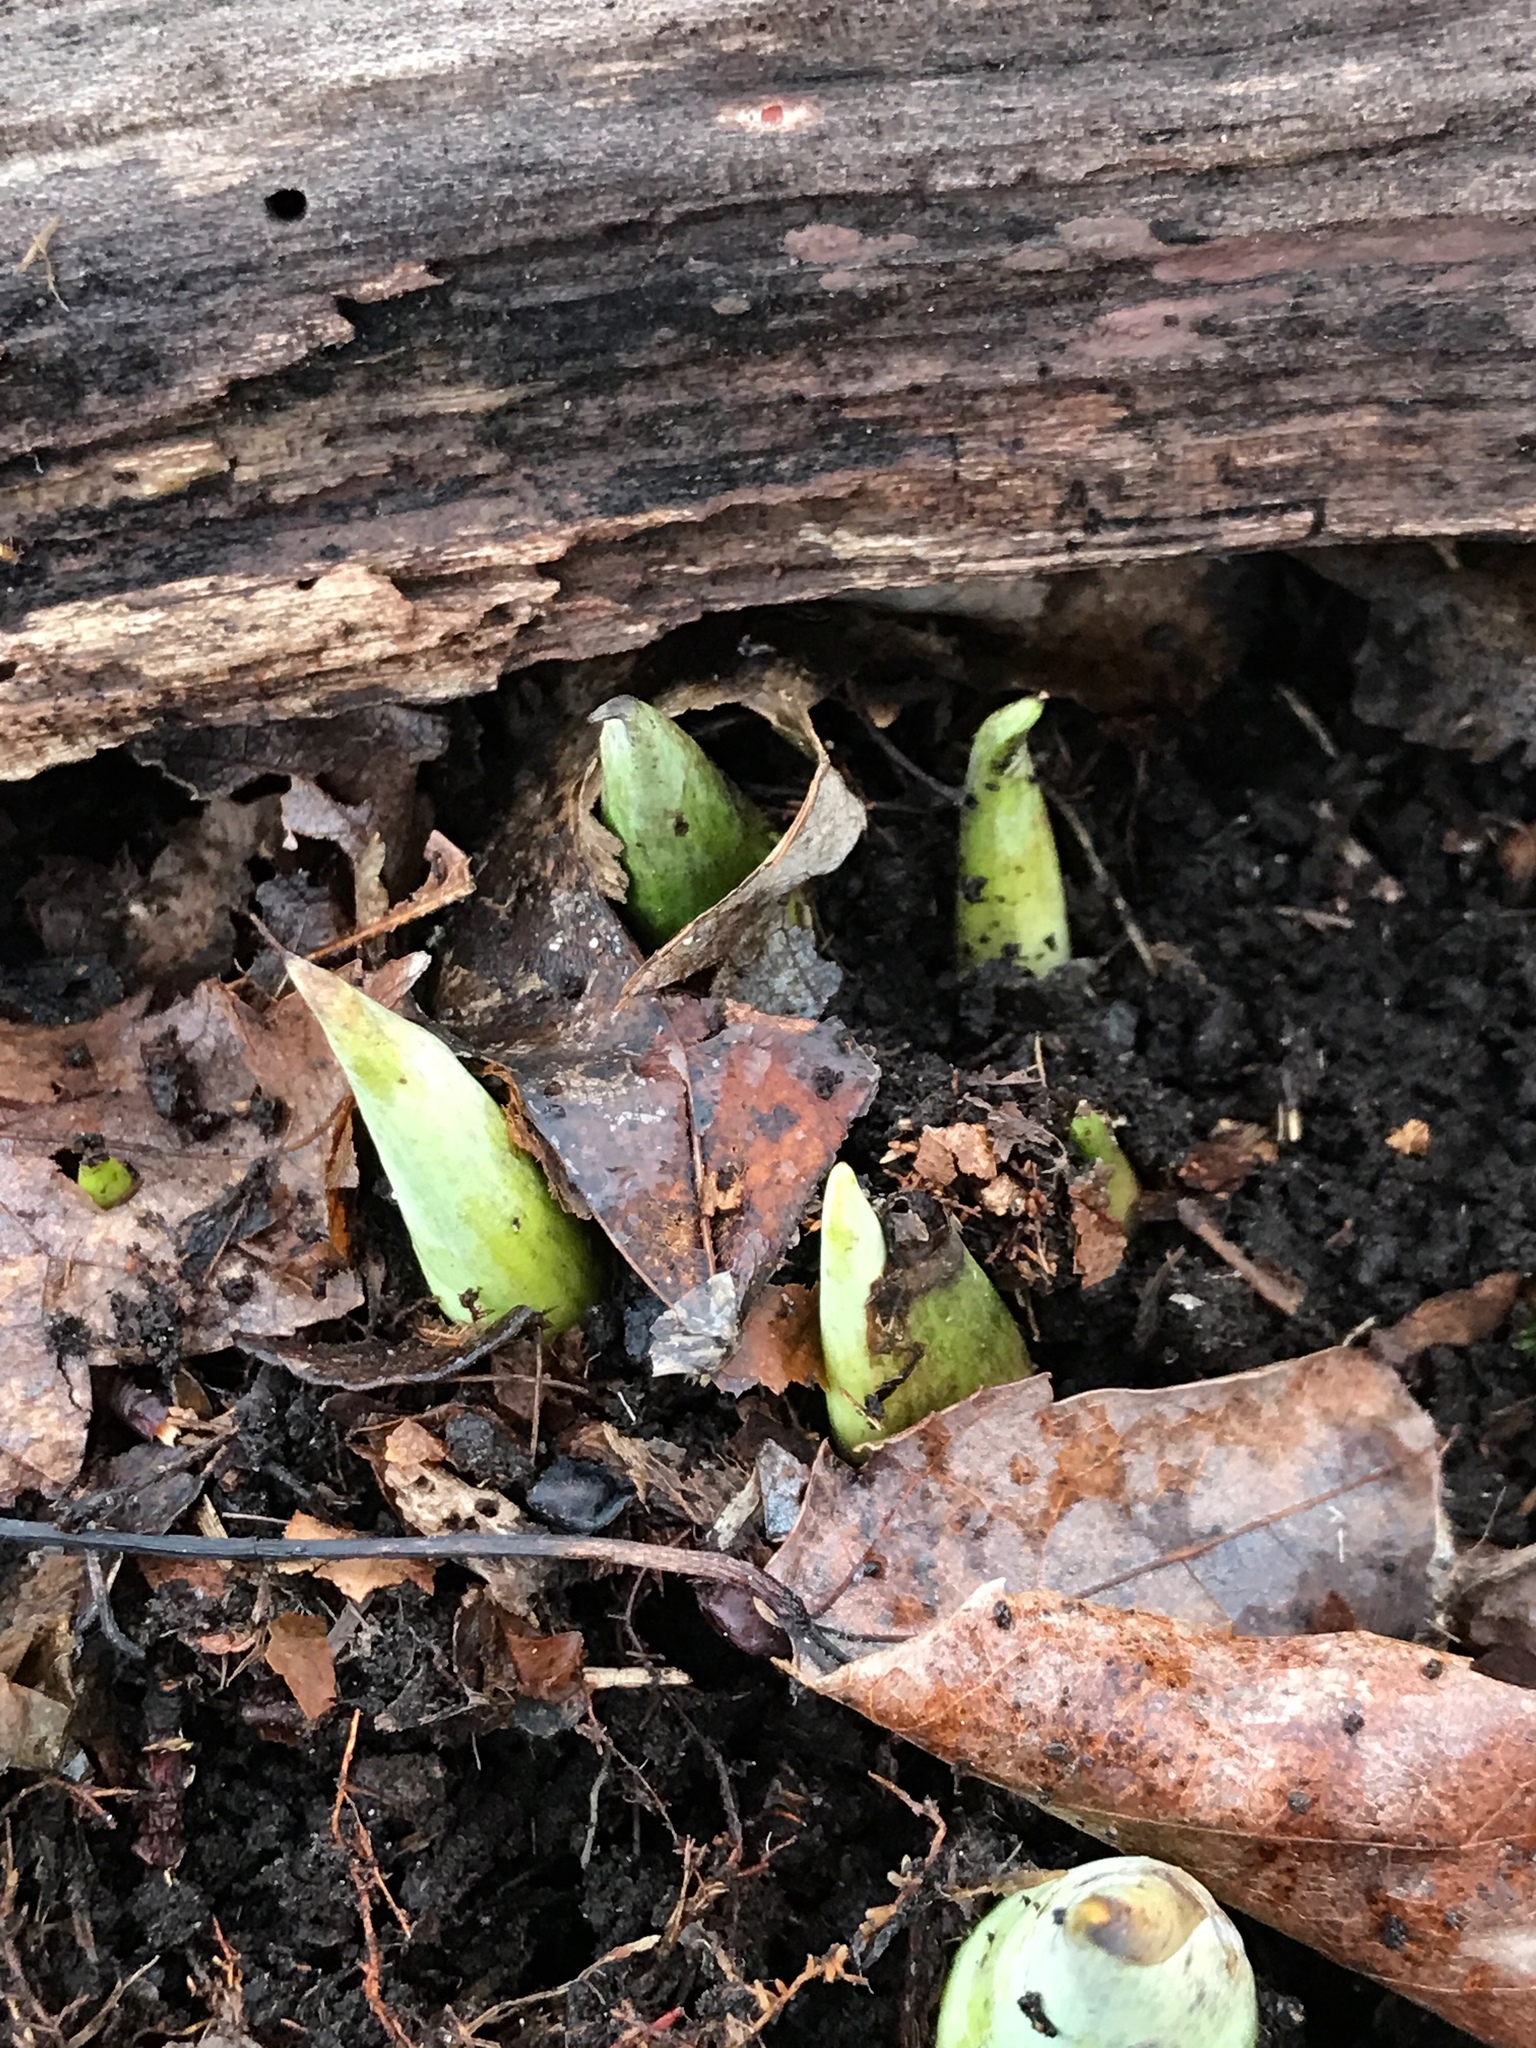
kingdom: Plantae
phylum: Tracheophyta
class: Liliopsida
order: Alismatales
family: Araceae
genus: Symplocarpus
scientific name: Symplocarpus foetidus
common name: Eastern skunk cabbage
